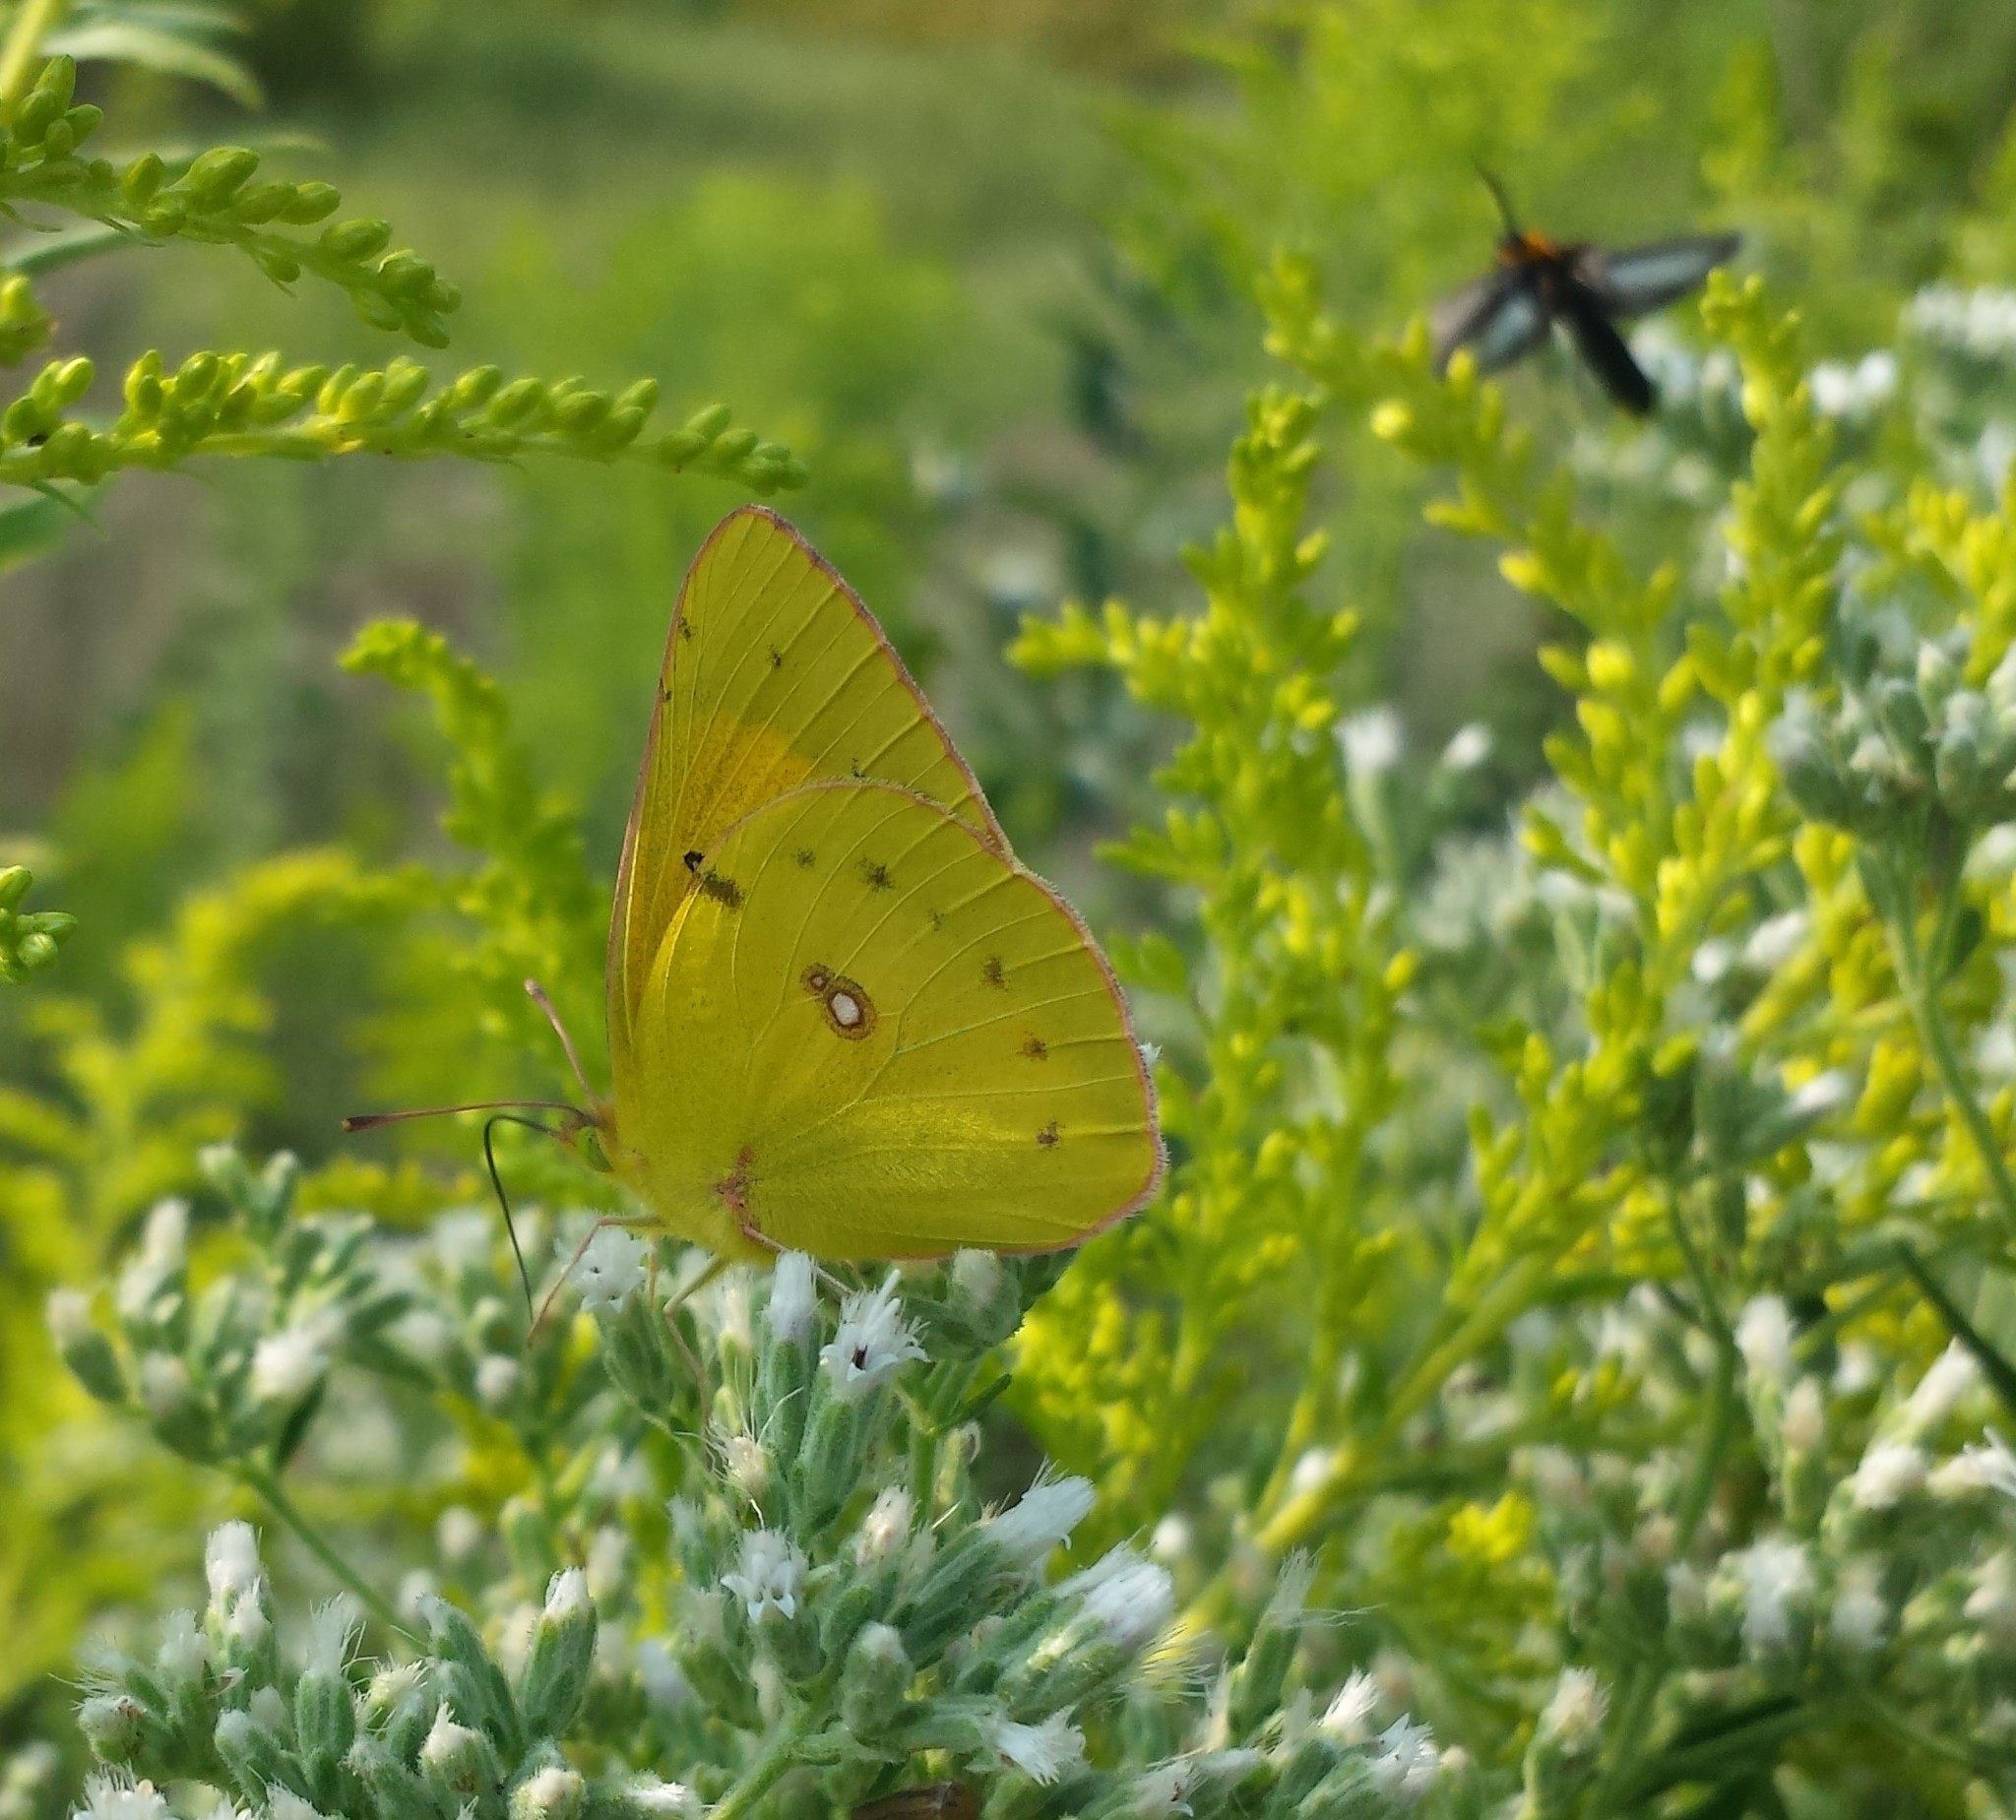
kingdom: Animalia
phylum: Arthropoda
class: Insecta
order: Lepidoptera
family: Pieridae
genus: Colias
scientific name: Colias eurytheme
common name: Alfalfa butterfly
